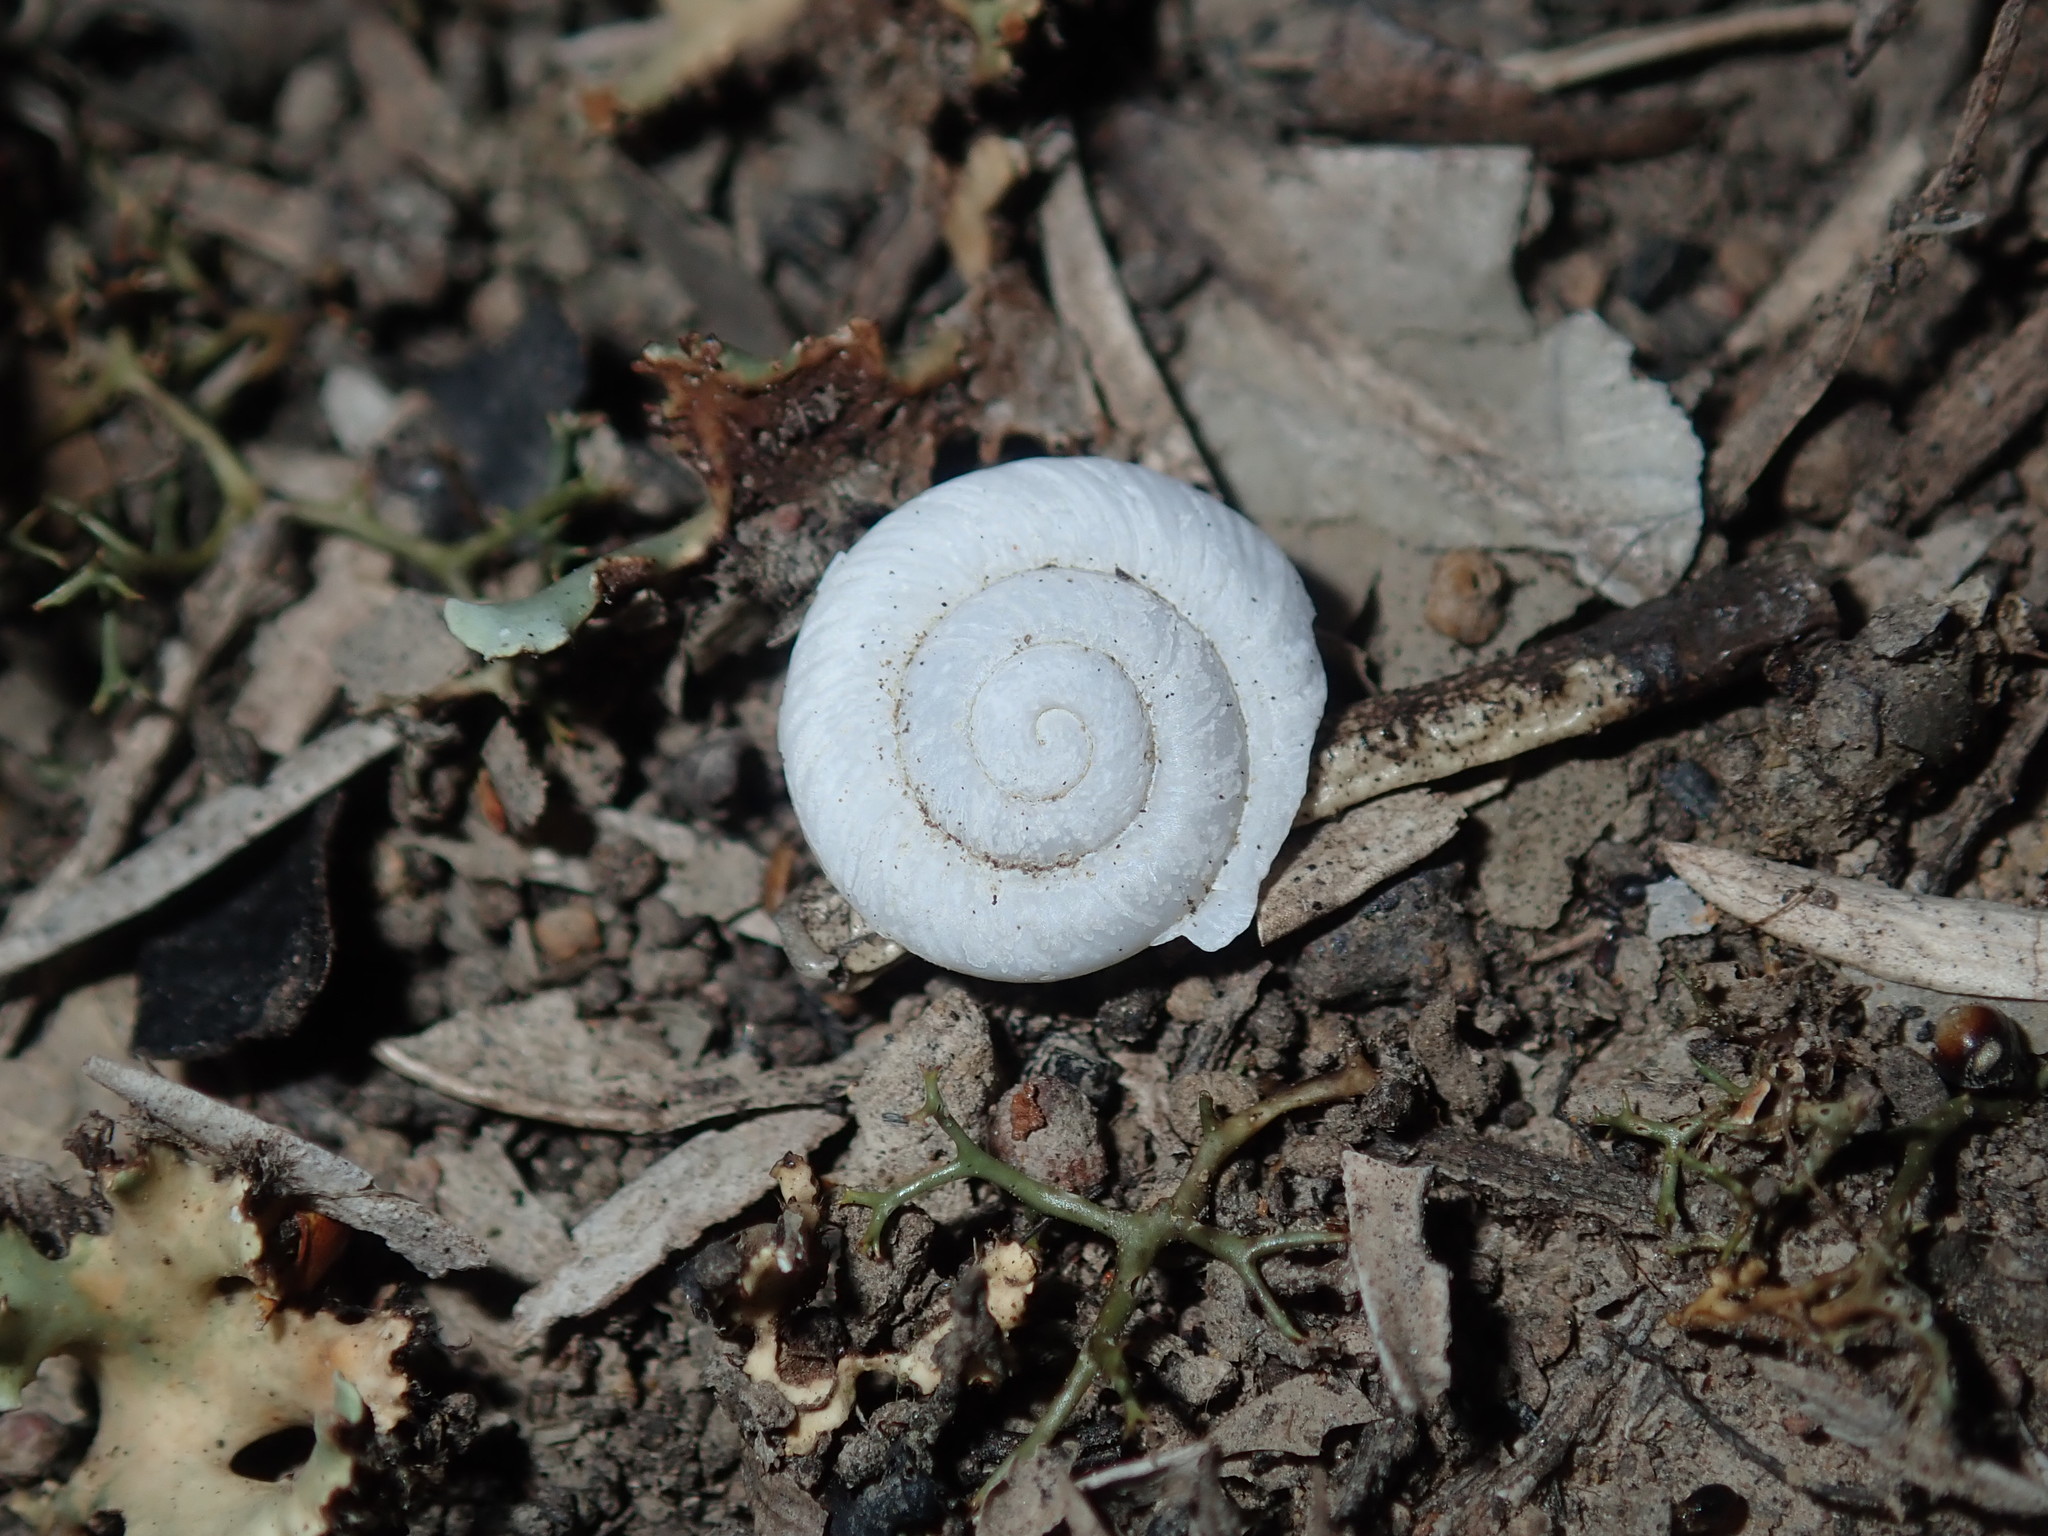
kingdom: Animalia
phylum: Mollusca
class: Gastropoda
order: Stylommatophora
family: Camaenidae
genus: Sauroconcha
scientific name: Sauroconcha sheai
